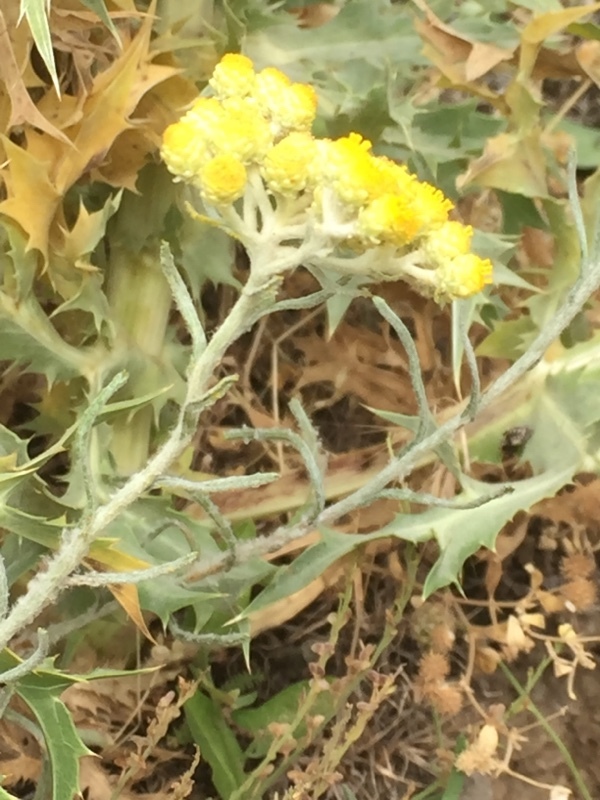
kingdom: Plantae
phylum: Tracheophyta
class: Magnoliopsida
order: Asterales
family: Asteraceae
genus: Helichrysum
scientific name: Helichrysum arenarium
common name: Strawflower
